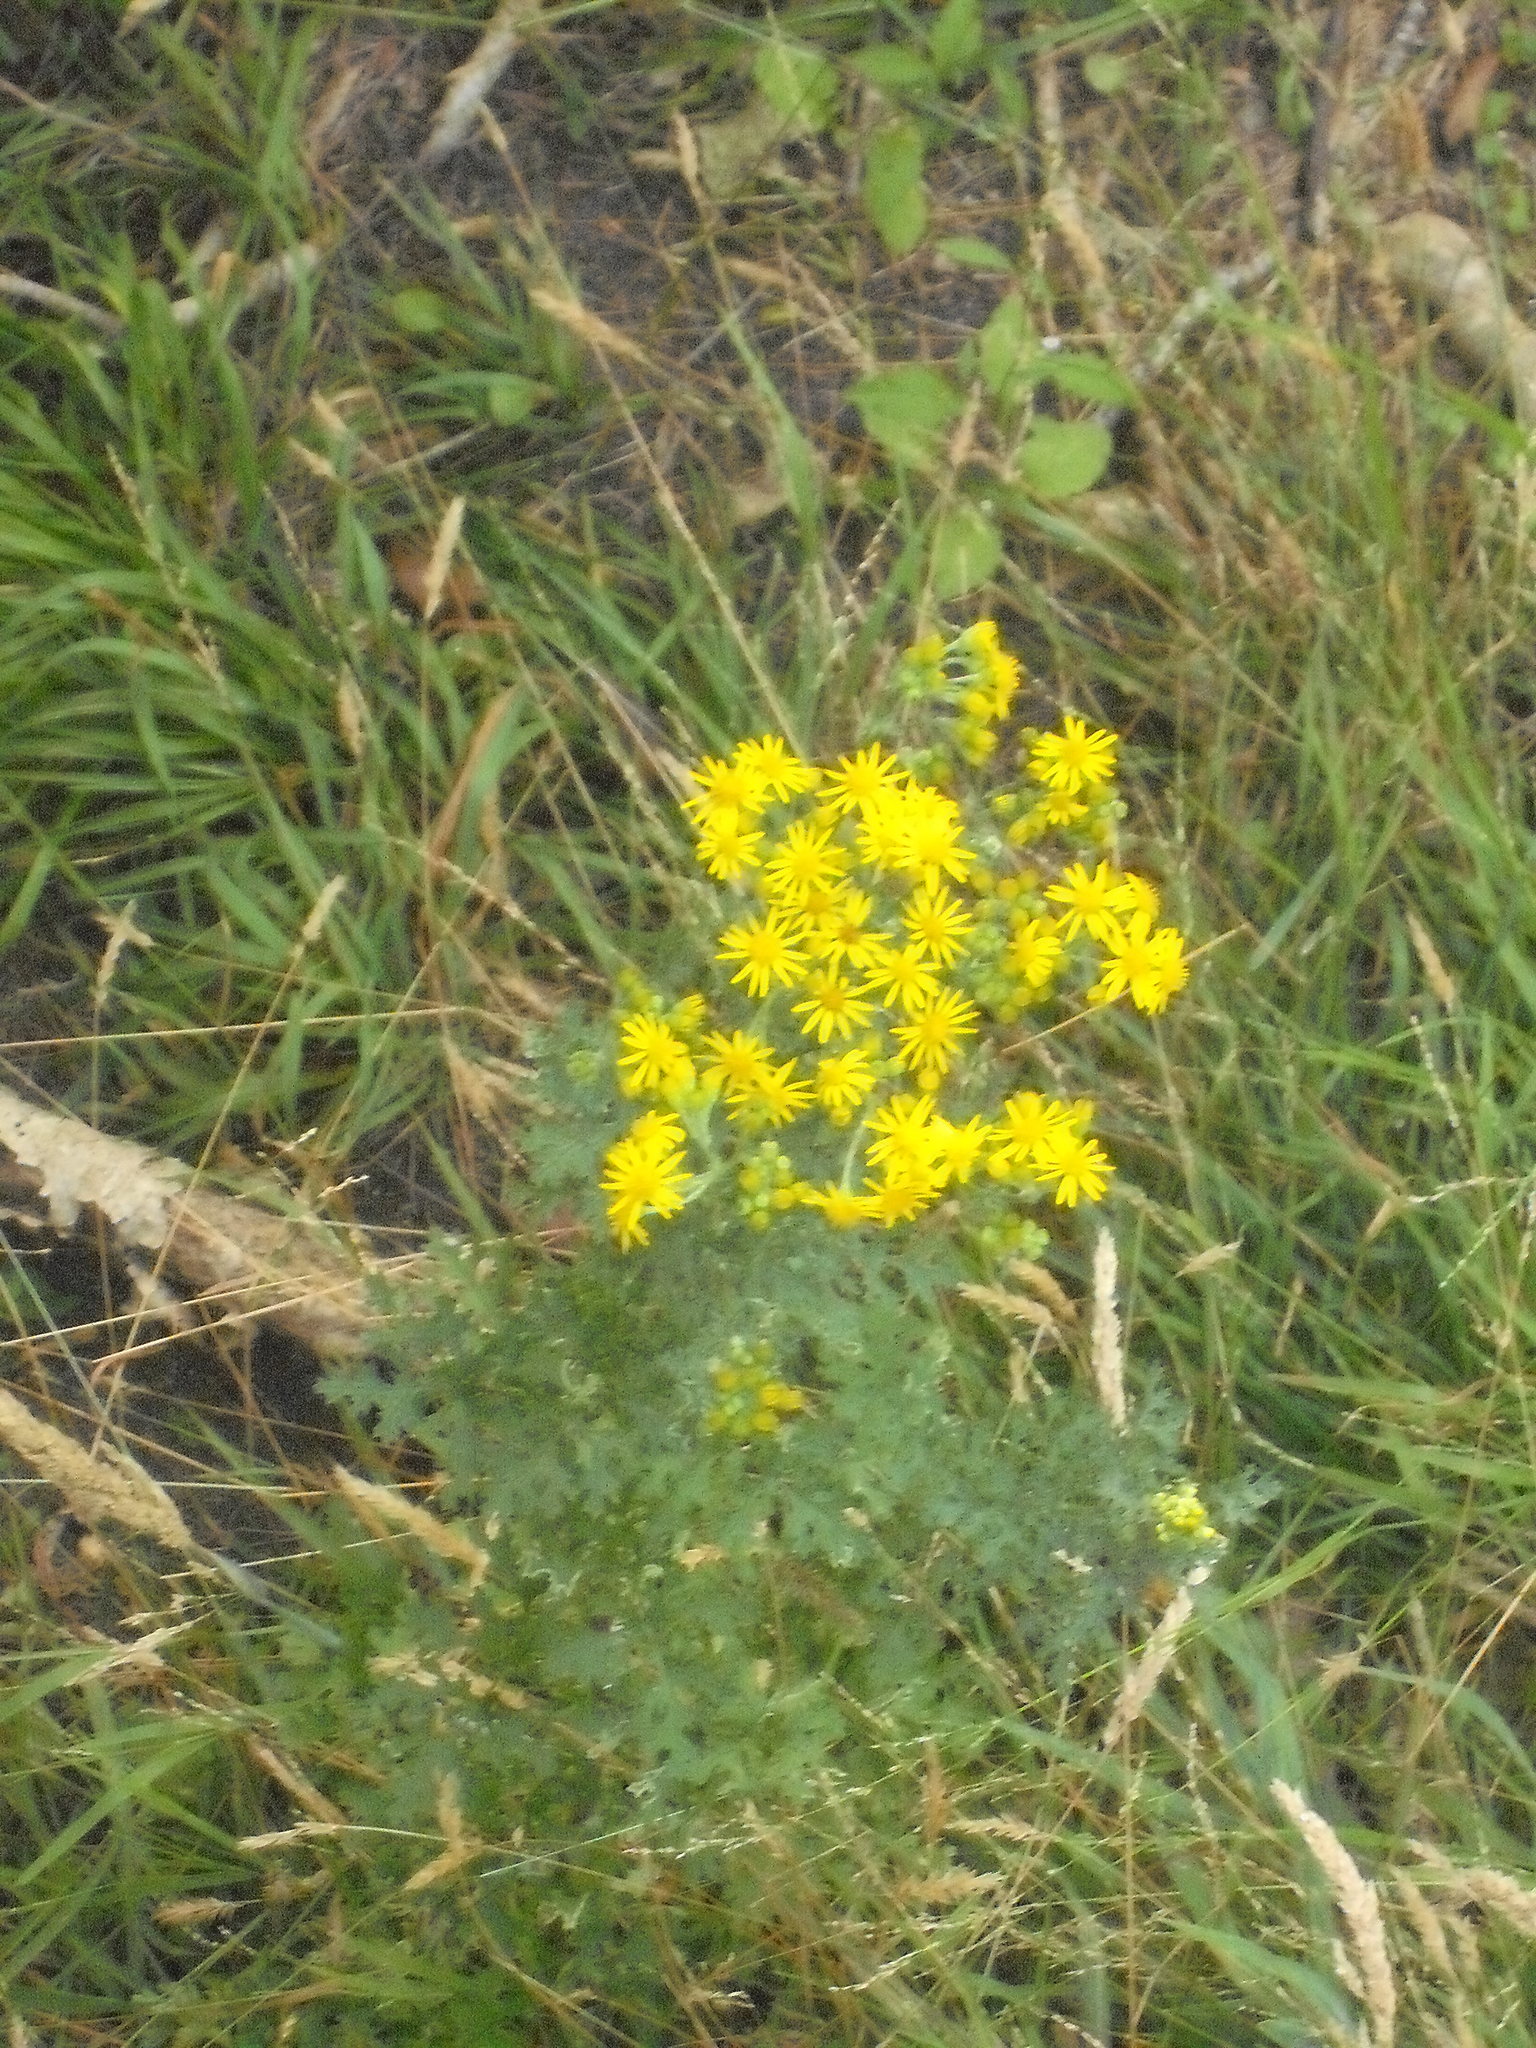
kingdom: Plantae
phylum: Tracheophyta
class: Magnoliopsida
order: Asterales
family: Asteraceae
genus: Jacobaea
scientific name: Jacobaea vulgaris
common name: Stinking willie
